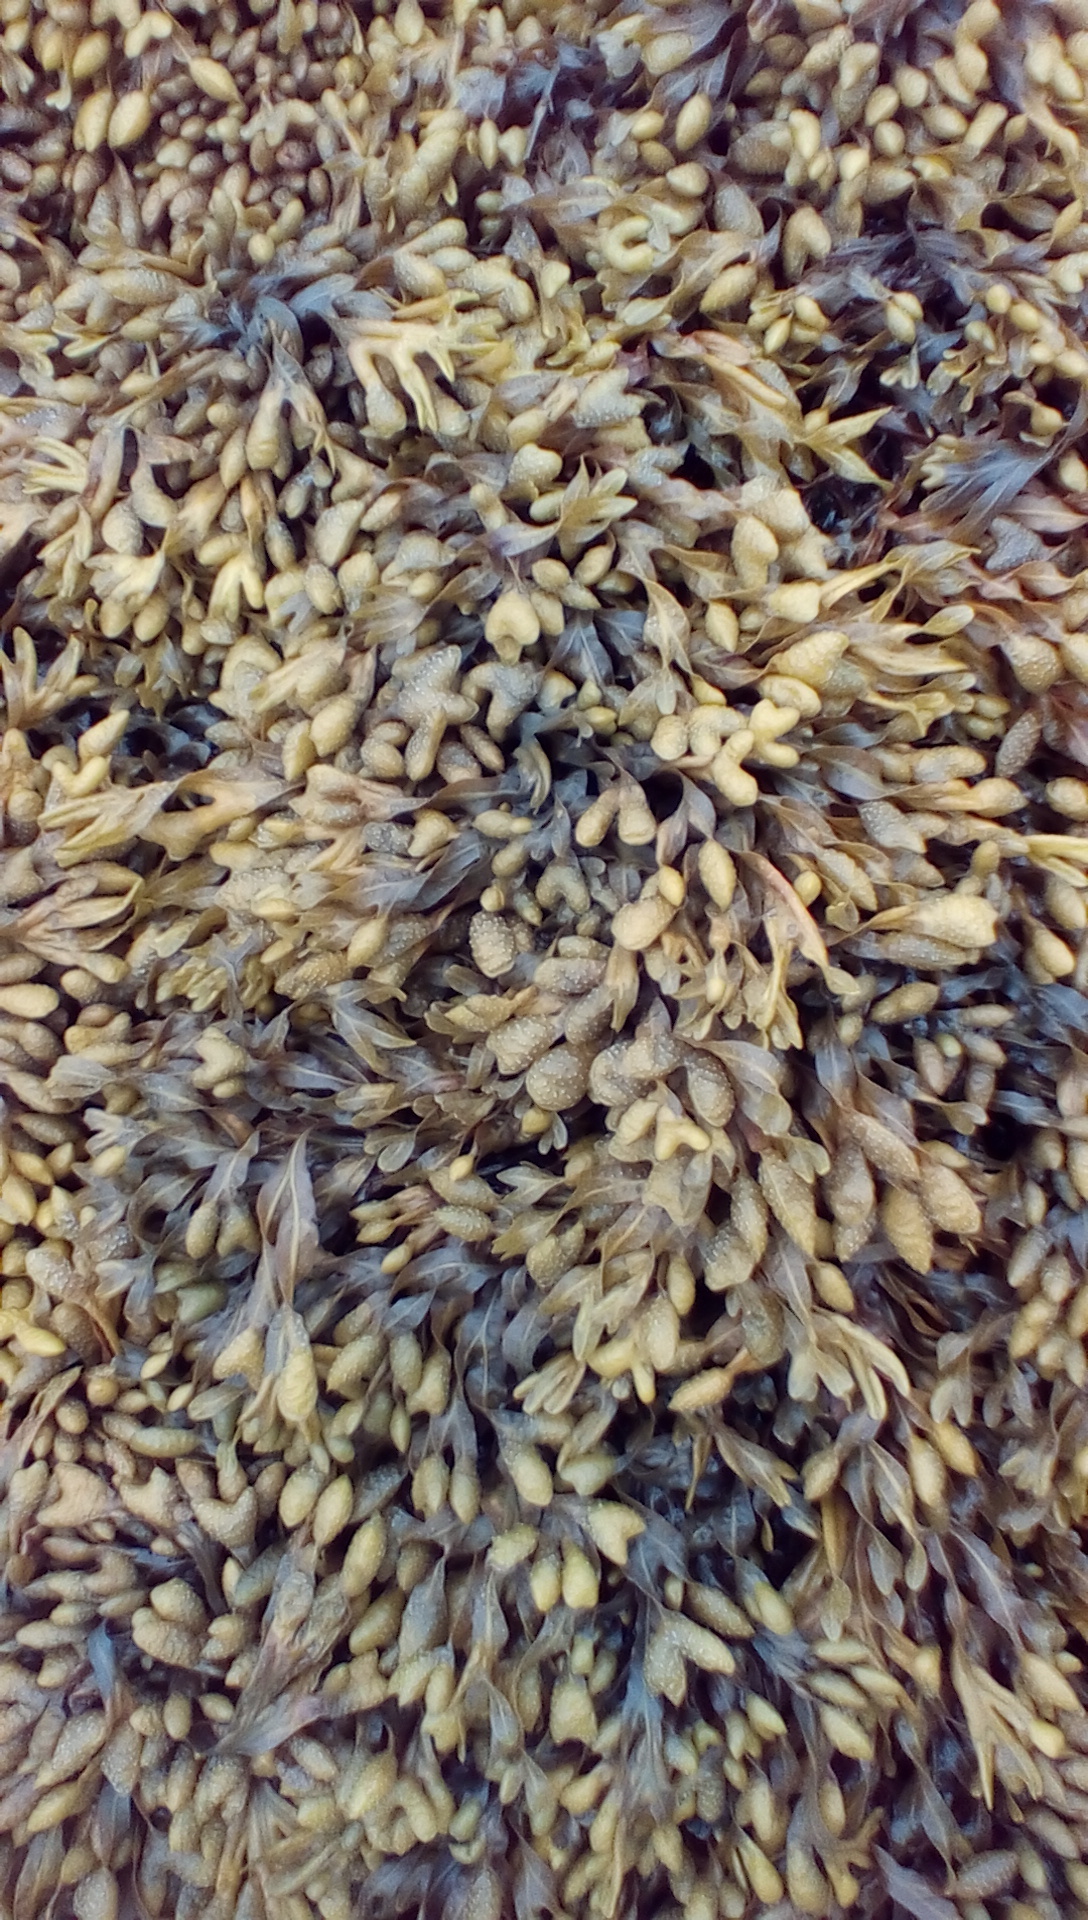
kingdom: Chromista
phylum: Ochrophyta
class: Phaeophyceae
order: Fucales
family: Fucaceae
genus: Fucus
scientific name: Fucus spiralis
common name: Spiral wrack
